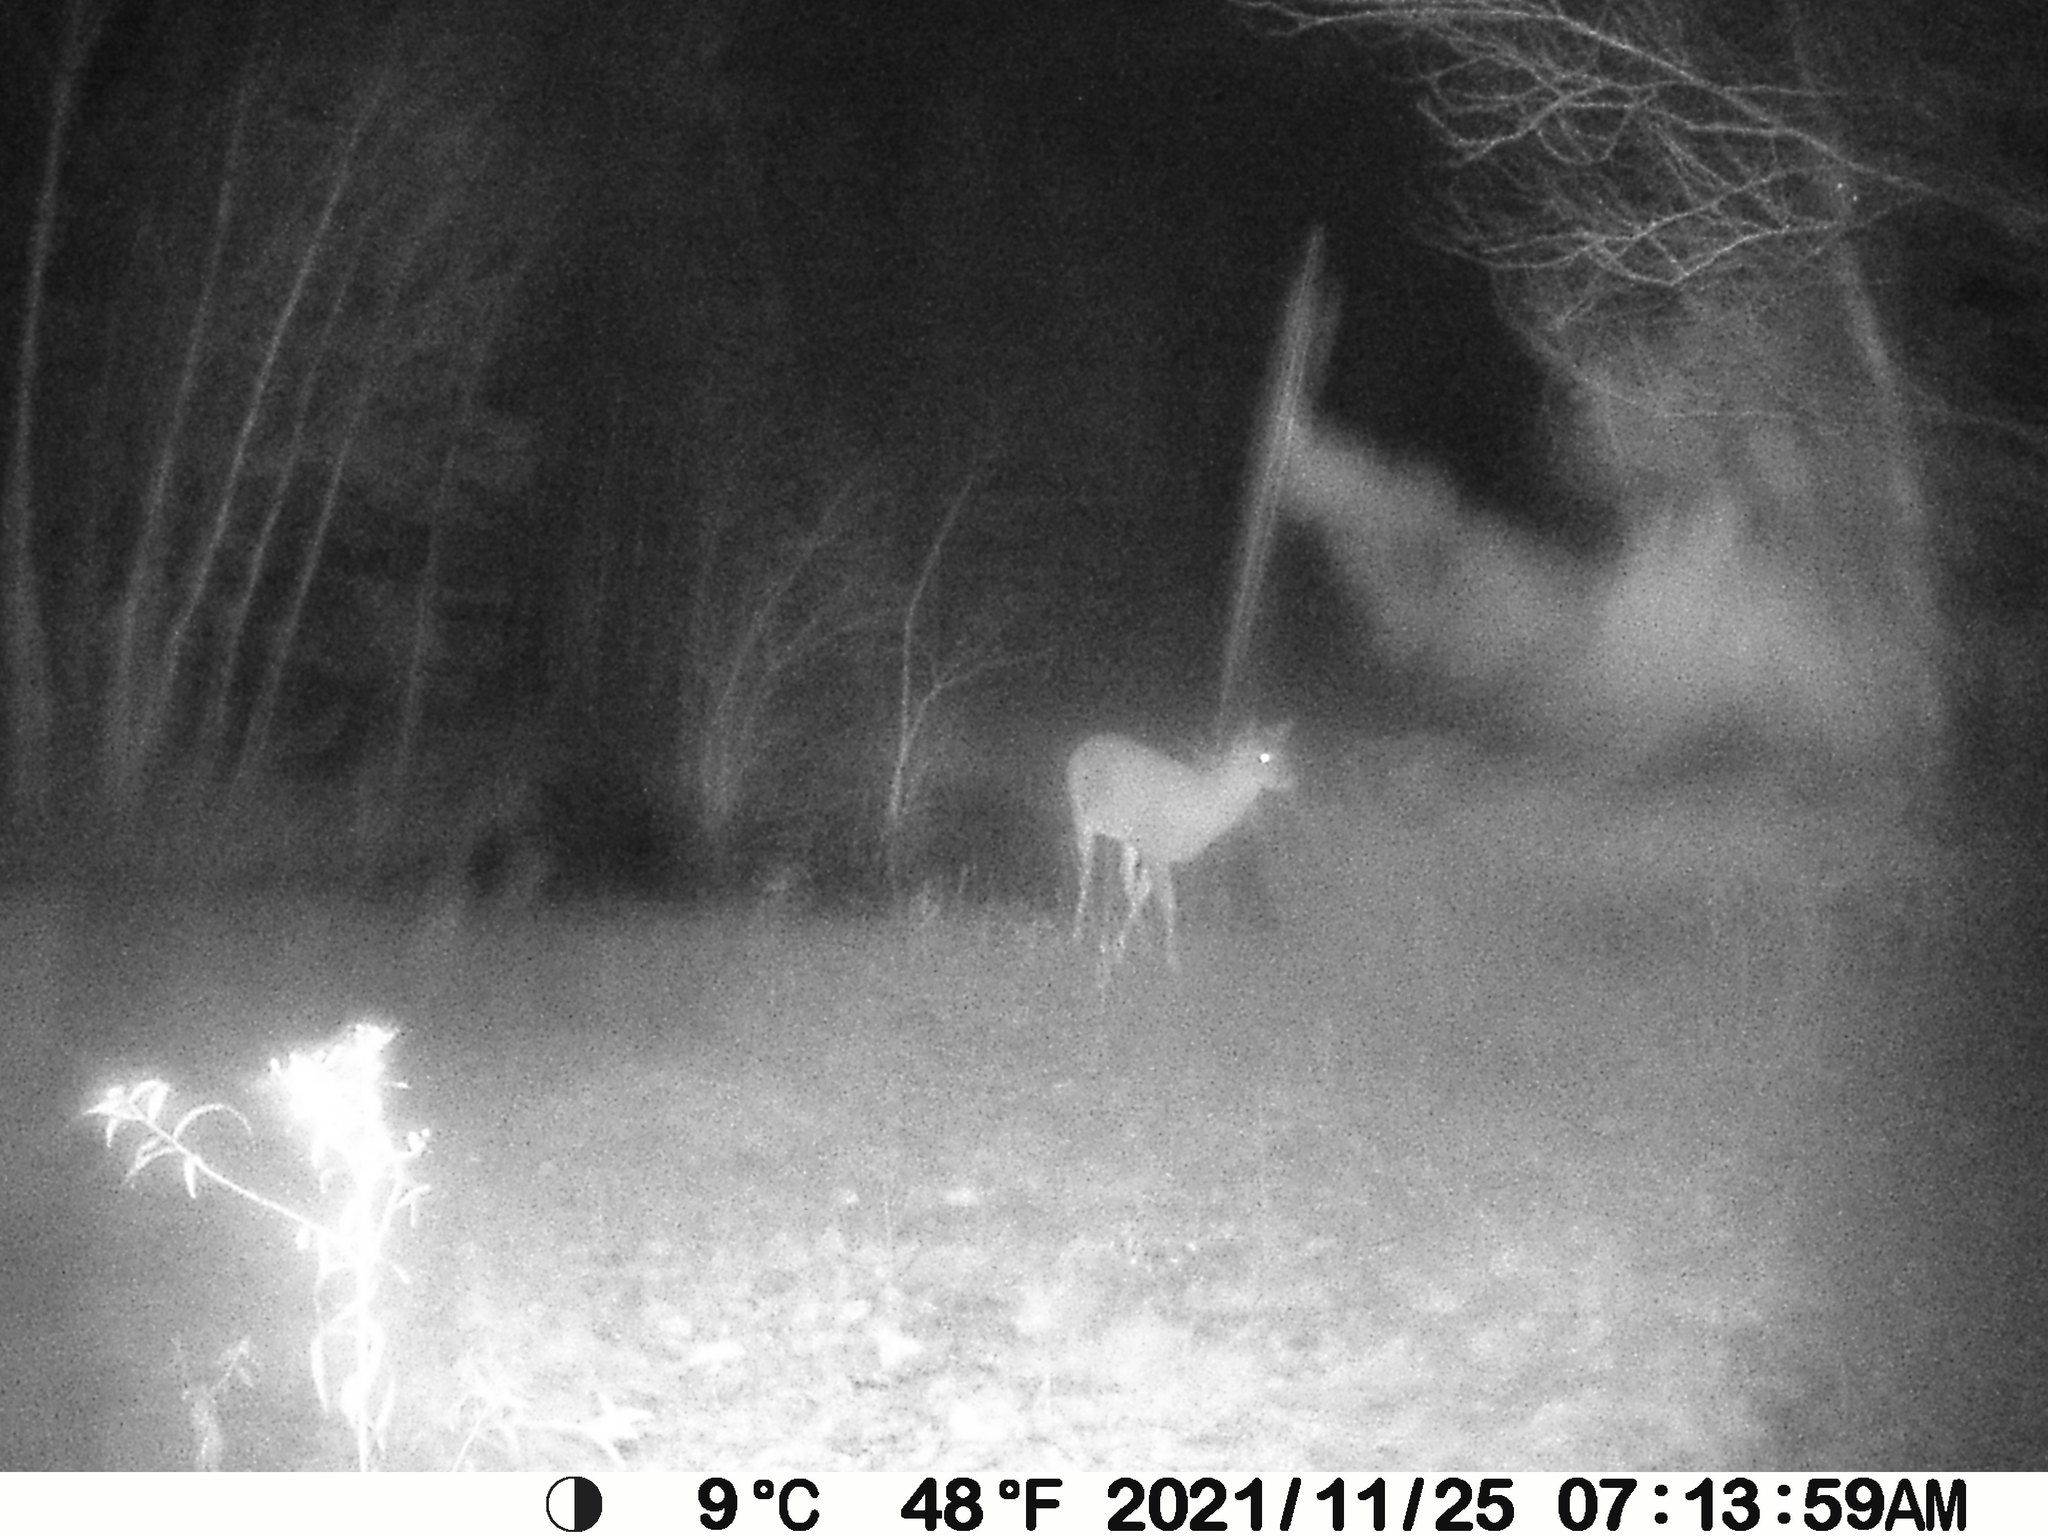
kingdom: Animalia
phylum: Chordata
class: Mammalia
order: Artiodactyla
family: Cervidae
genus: Odocoileus
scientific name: Odocoileus virginianus
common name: White-tailed deer
